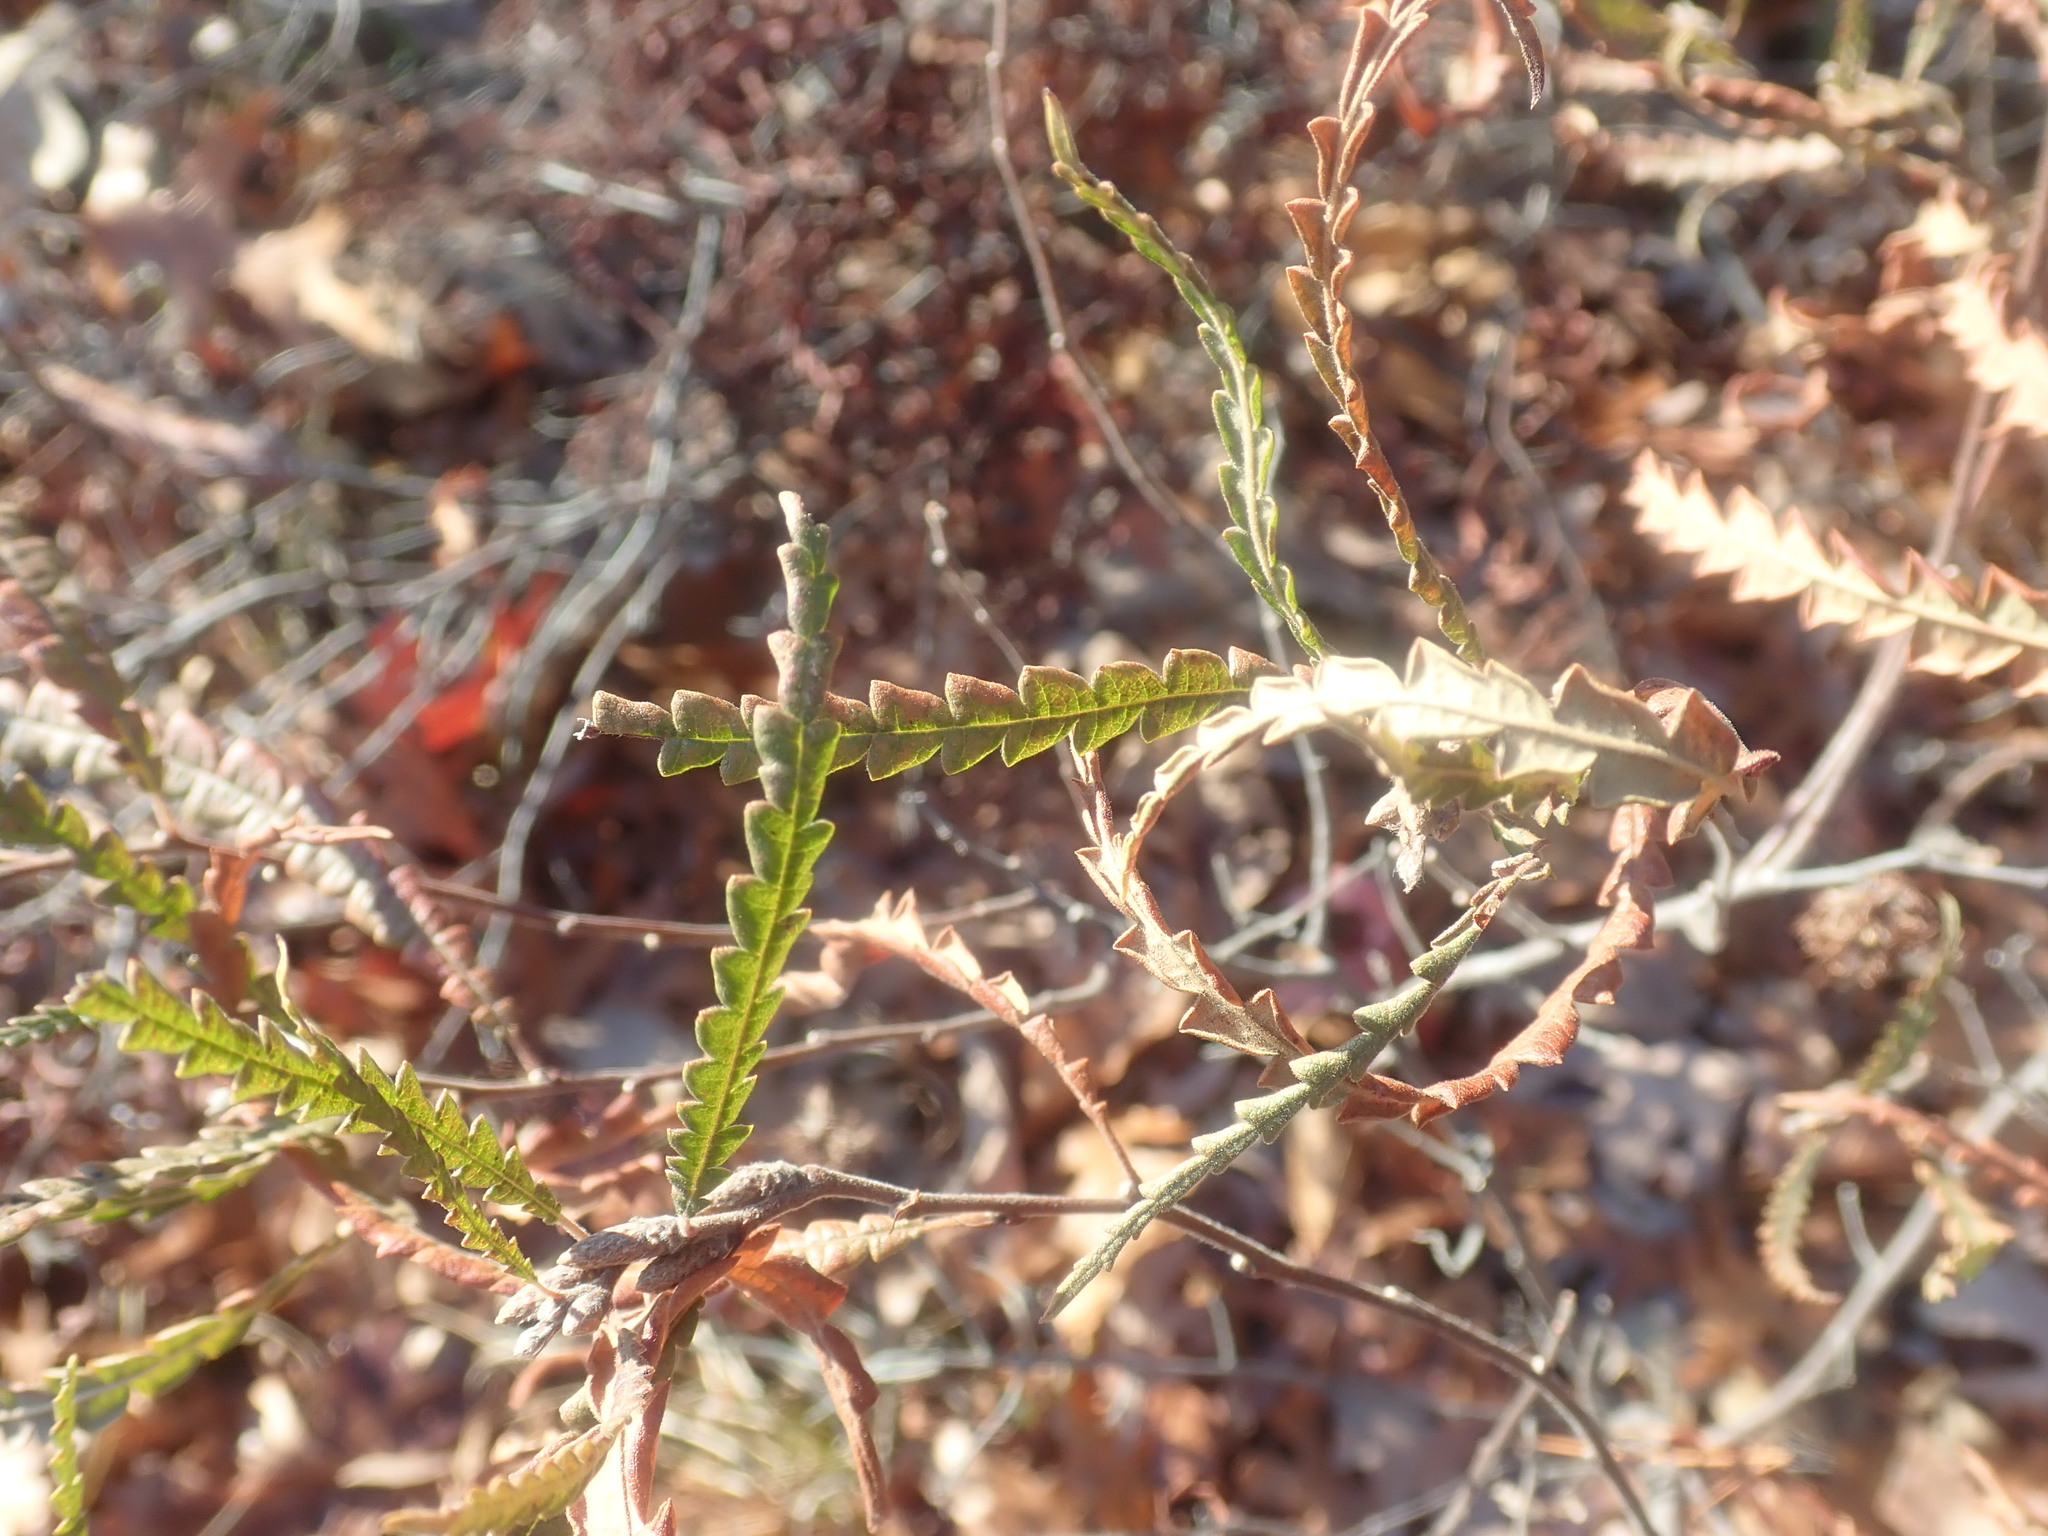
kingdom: Plantae
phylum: Tracheophyta
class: Magnoliopsida
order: Fagales
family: Myricaceae
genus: Comptonia
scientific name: Comptonia peregrina
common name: Sweet-fern
